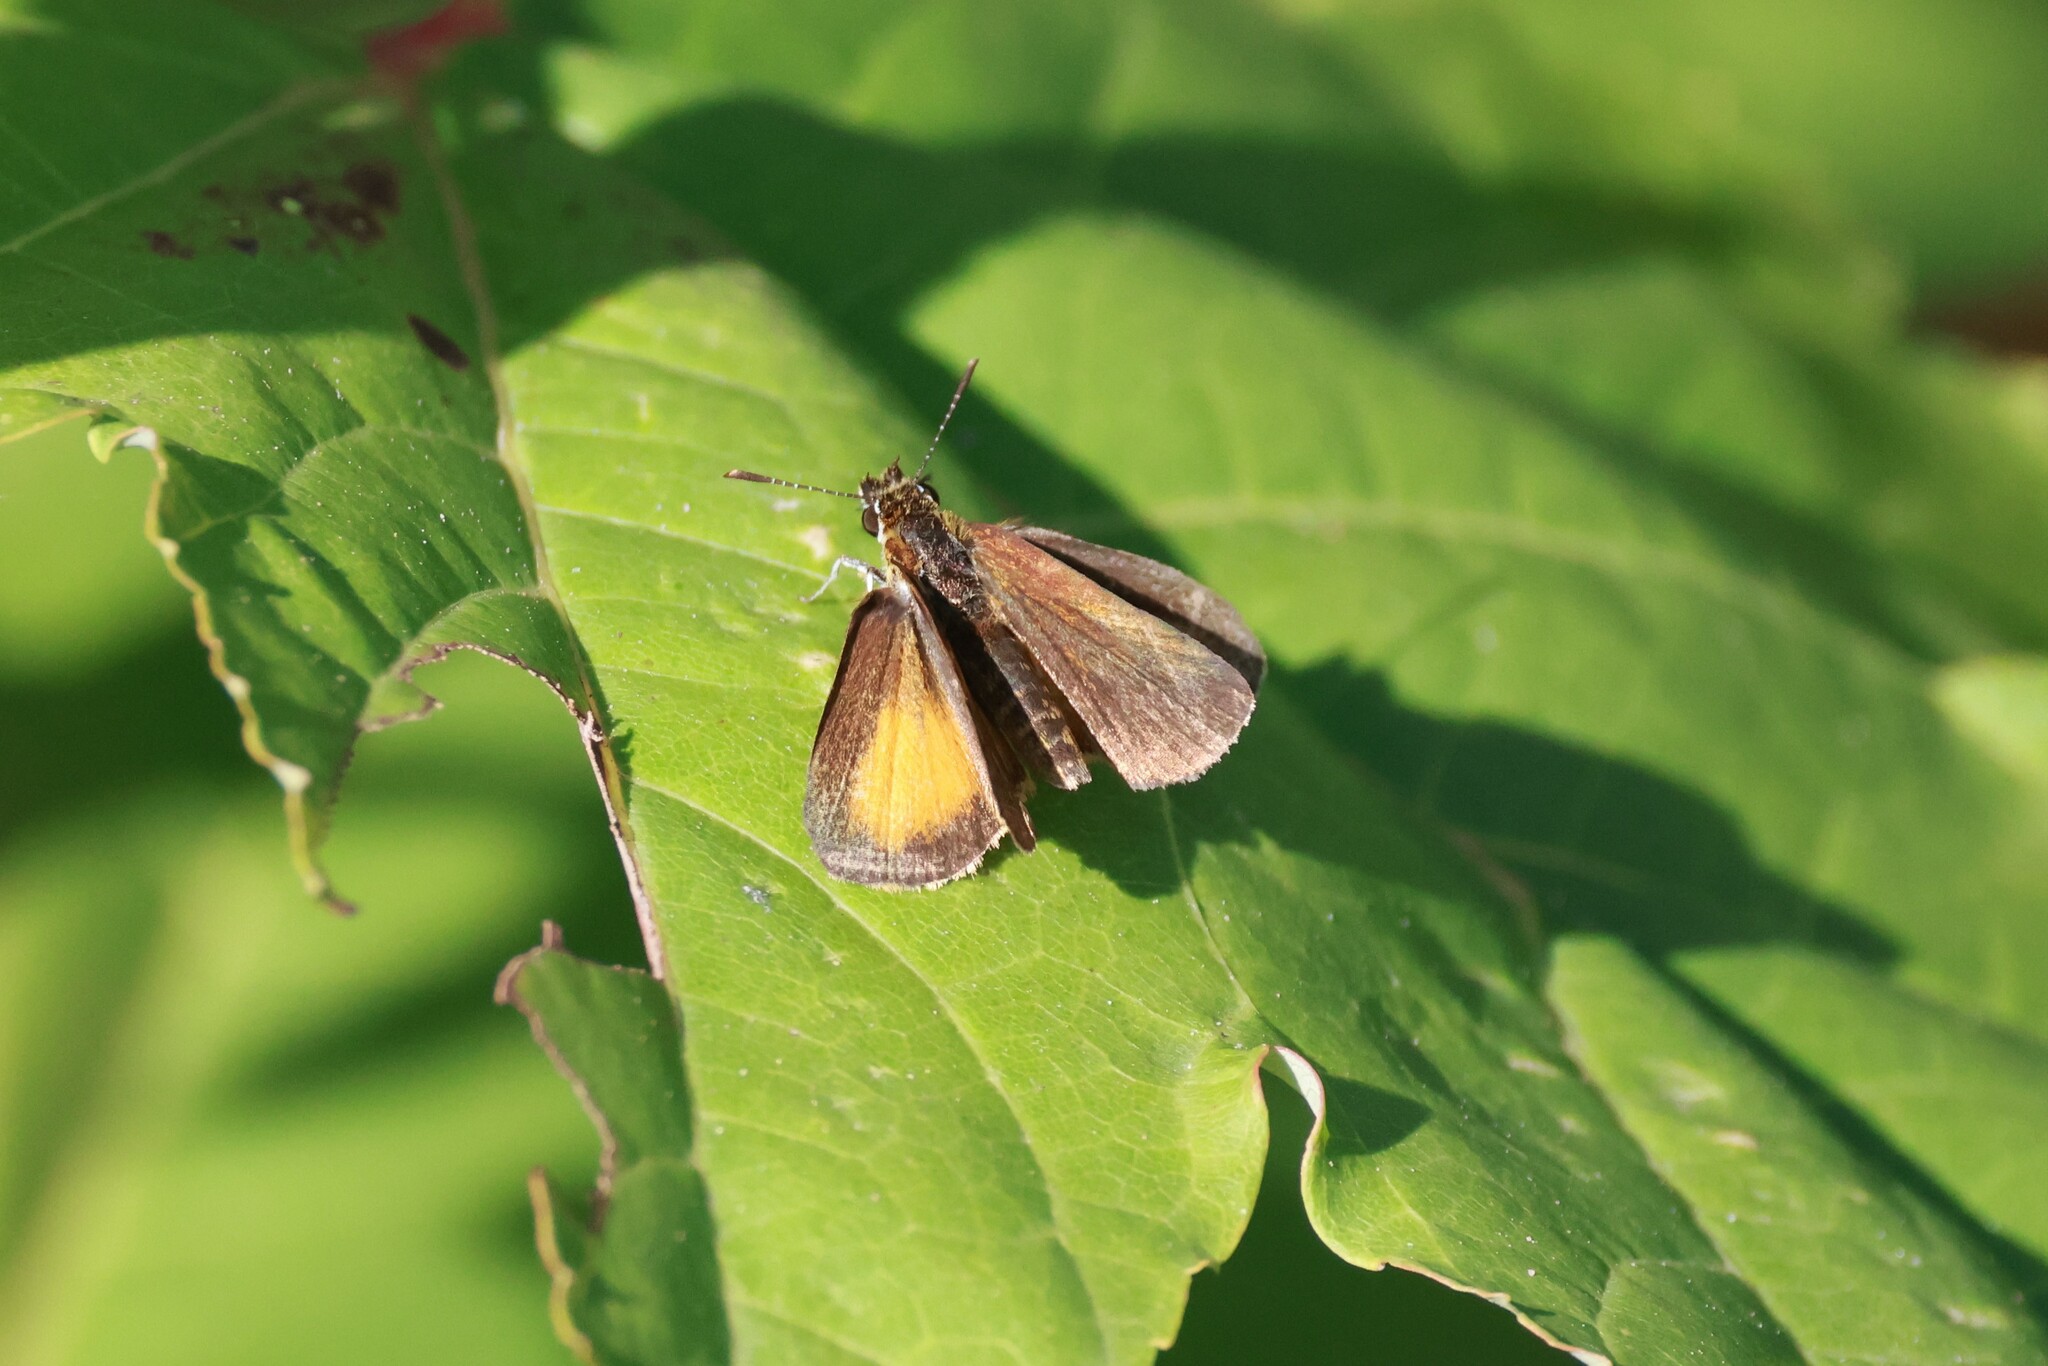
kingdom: Animalia
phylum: Arthropoda
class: Insecta
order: Lepidoptera
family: Hesperiidae
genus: Ancyloxypha
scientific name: Ancyloxypha numitor
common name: Least skipper
